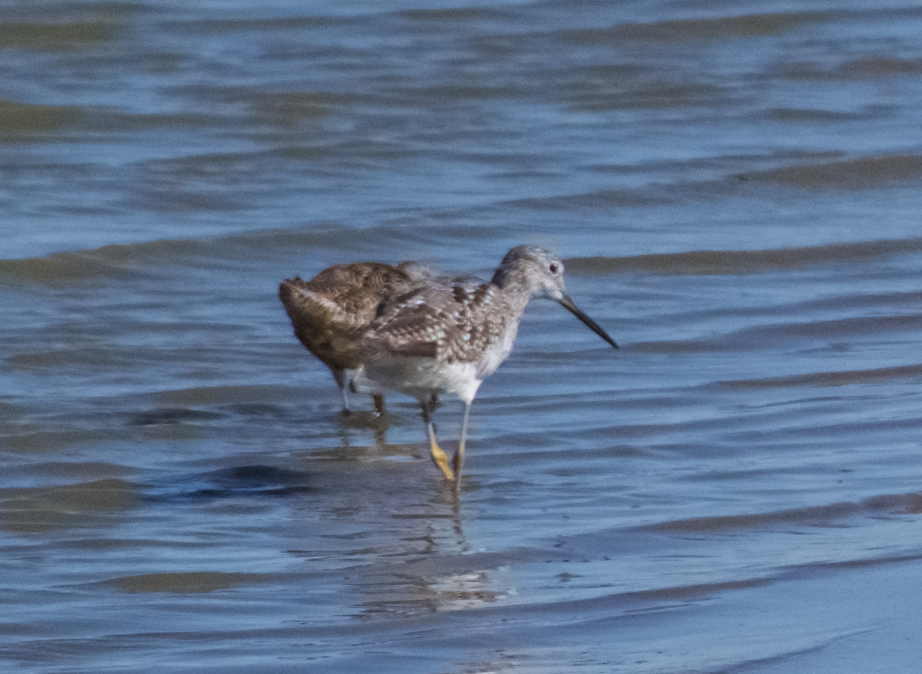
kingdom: Animalia
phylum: Chordata
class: Aves
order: Charadriiformes
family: Scolopacidae
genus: Tringa
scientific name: Tringa melanoleuca
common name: Greater yellowlegs
